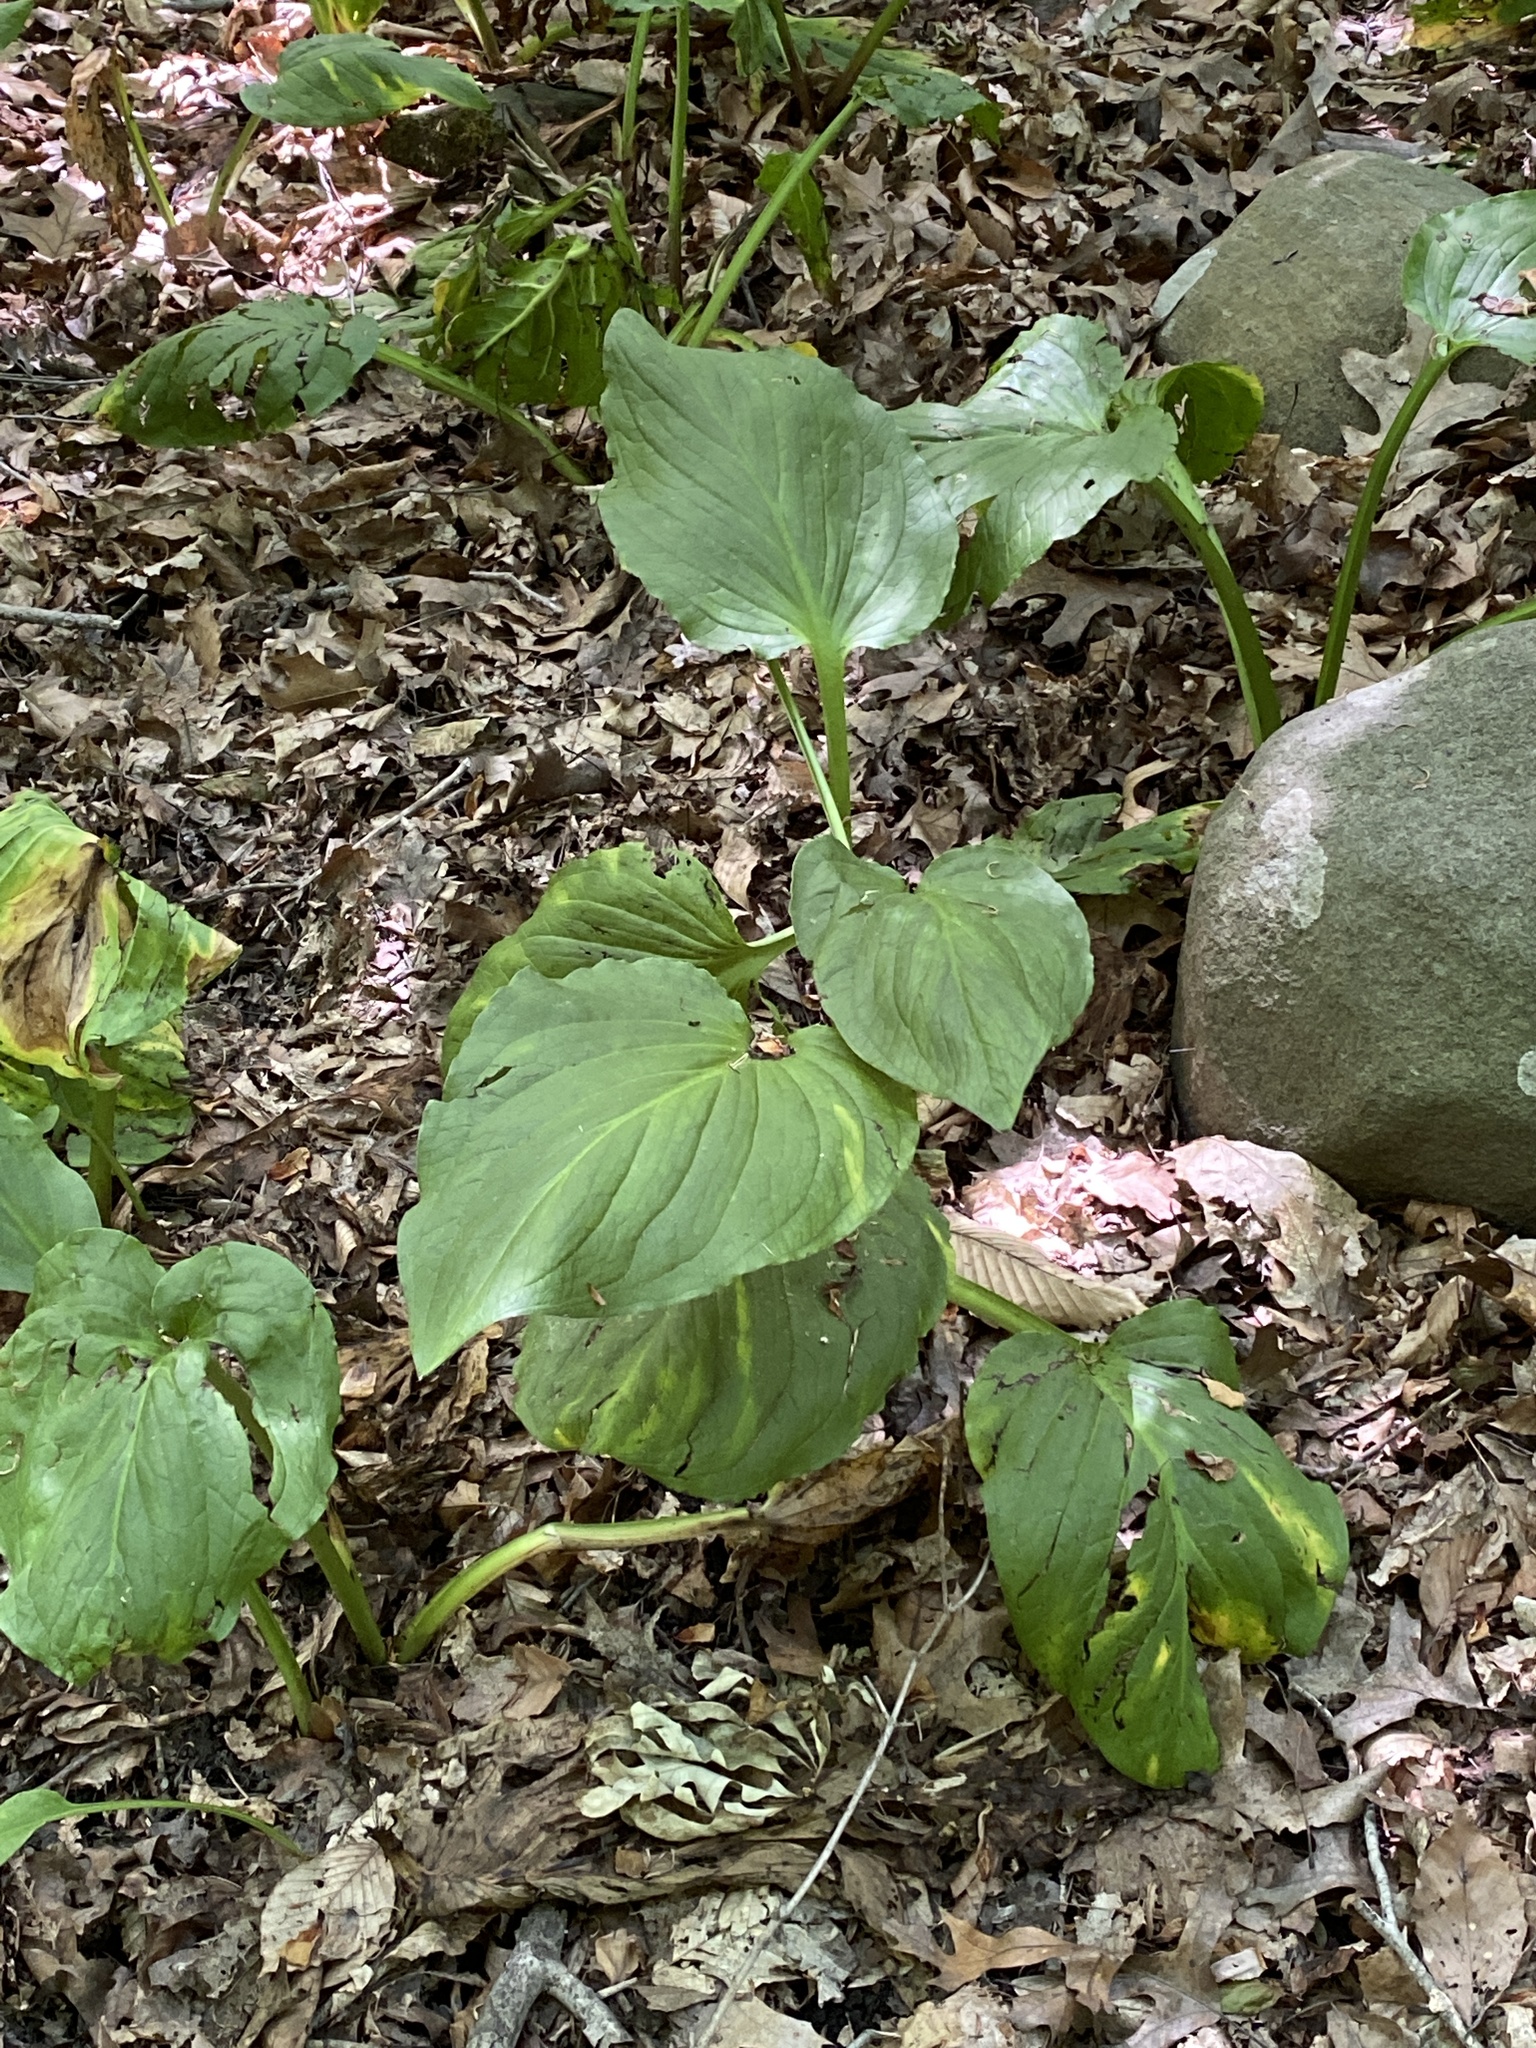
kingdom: Plantae
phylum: Tracheophyta
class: Liliopsida
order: Alismatales
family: Araceae
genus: Symplocarpus
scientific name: Symplocarpus foetidus
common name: Eastern skunk cabbage
